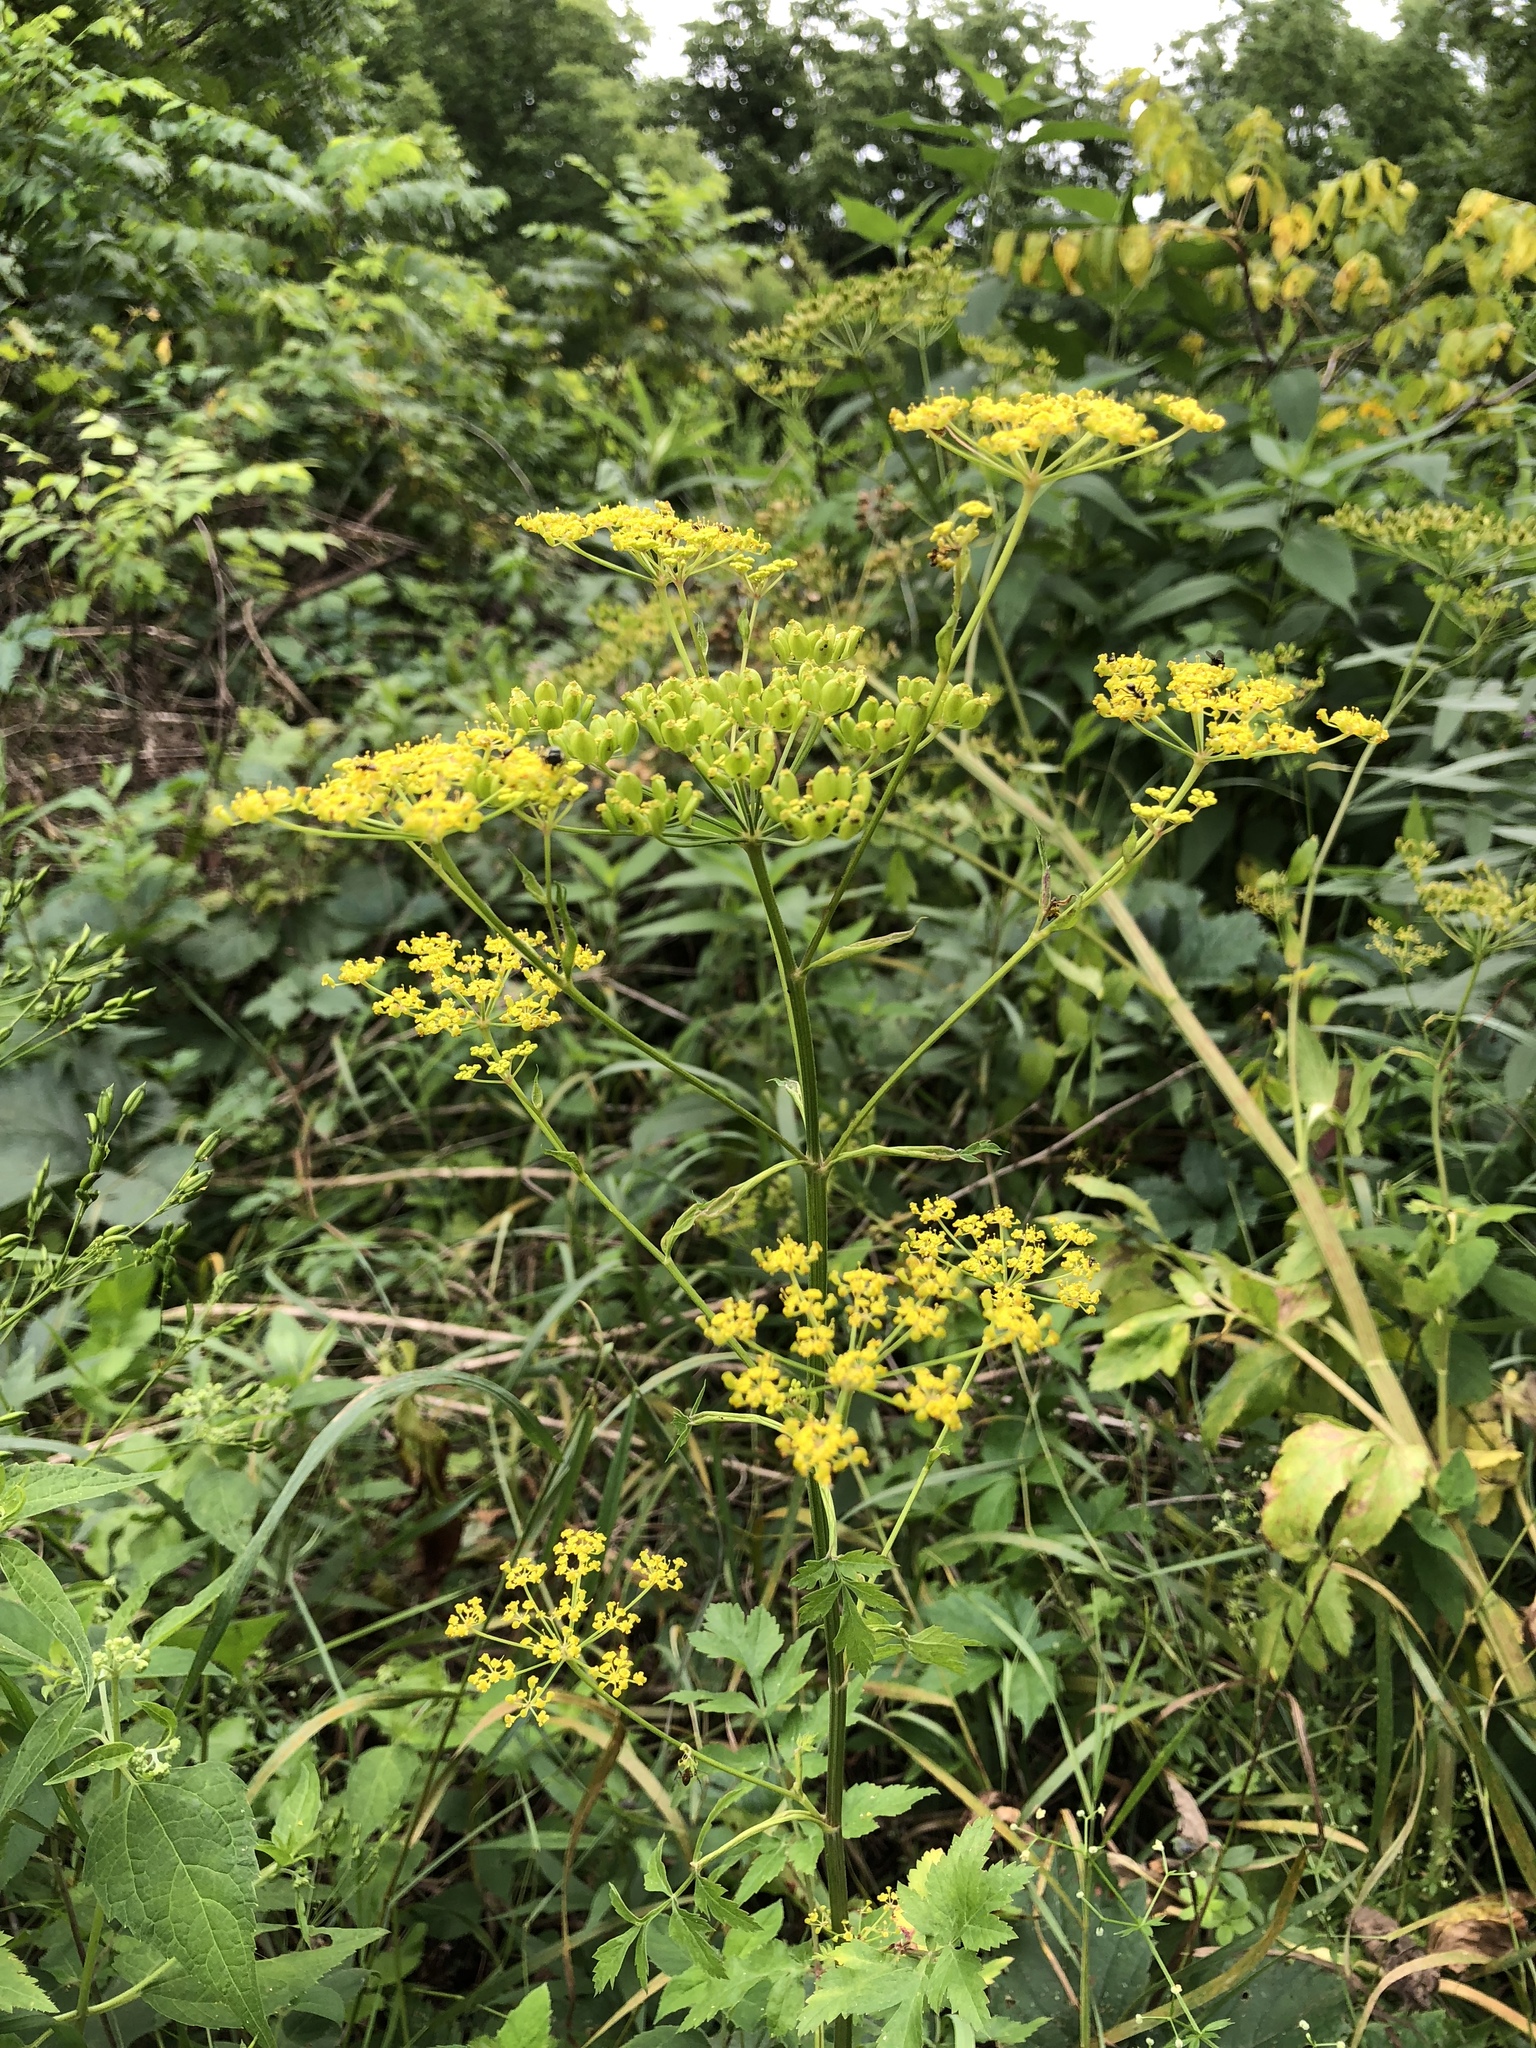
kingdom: Plantae
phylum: Tracheophyta
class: Magnoliopsida
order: Apiales
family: Apiaceae
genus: Pastinaca
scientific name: Pastinaca sativa
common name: Wild parsnip
